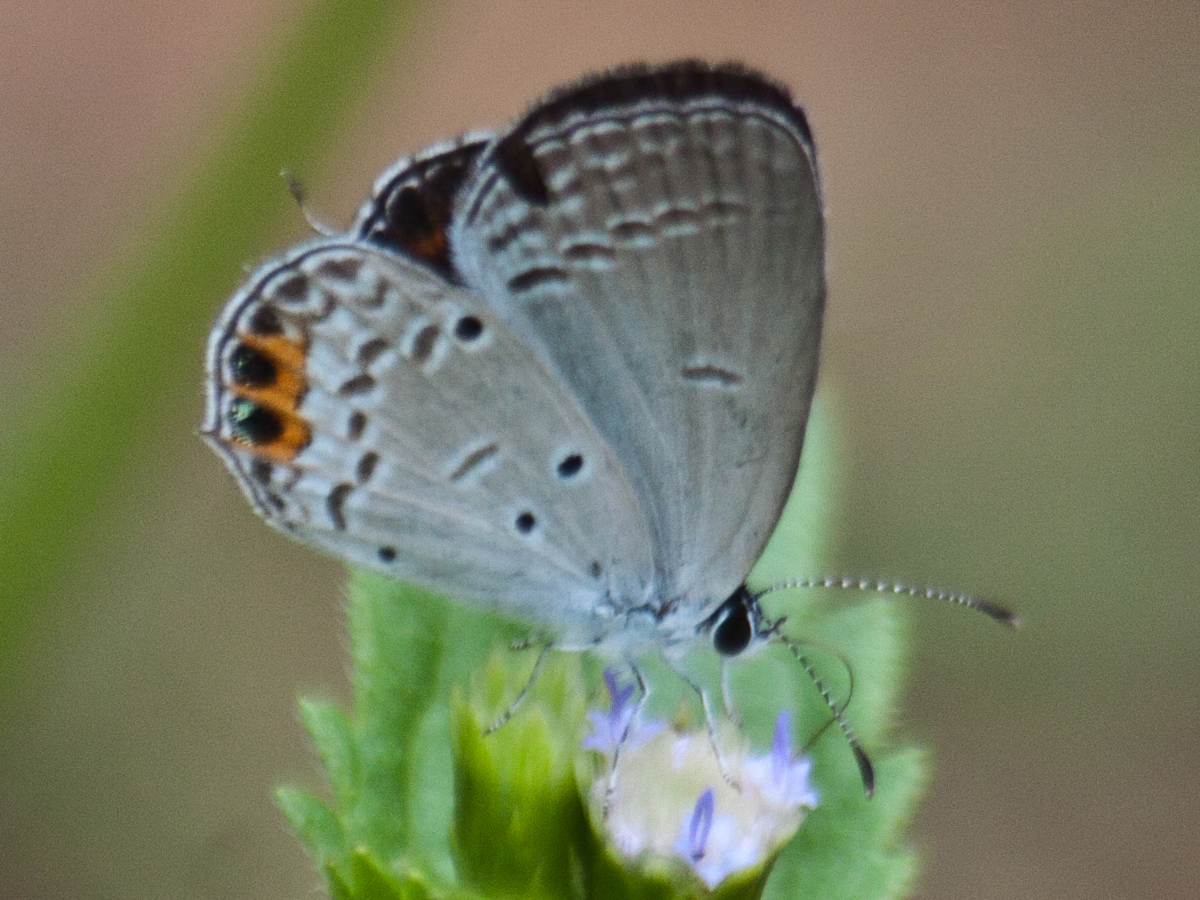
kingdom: Animalia
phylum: Arthropoda
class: Insecta
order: Lepidoptera
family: Lycaenidae
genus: Everes
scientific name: Everes lacturnus
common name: Orange-tipped pea-blue
